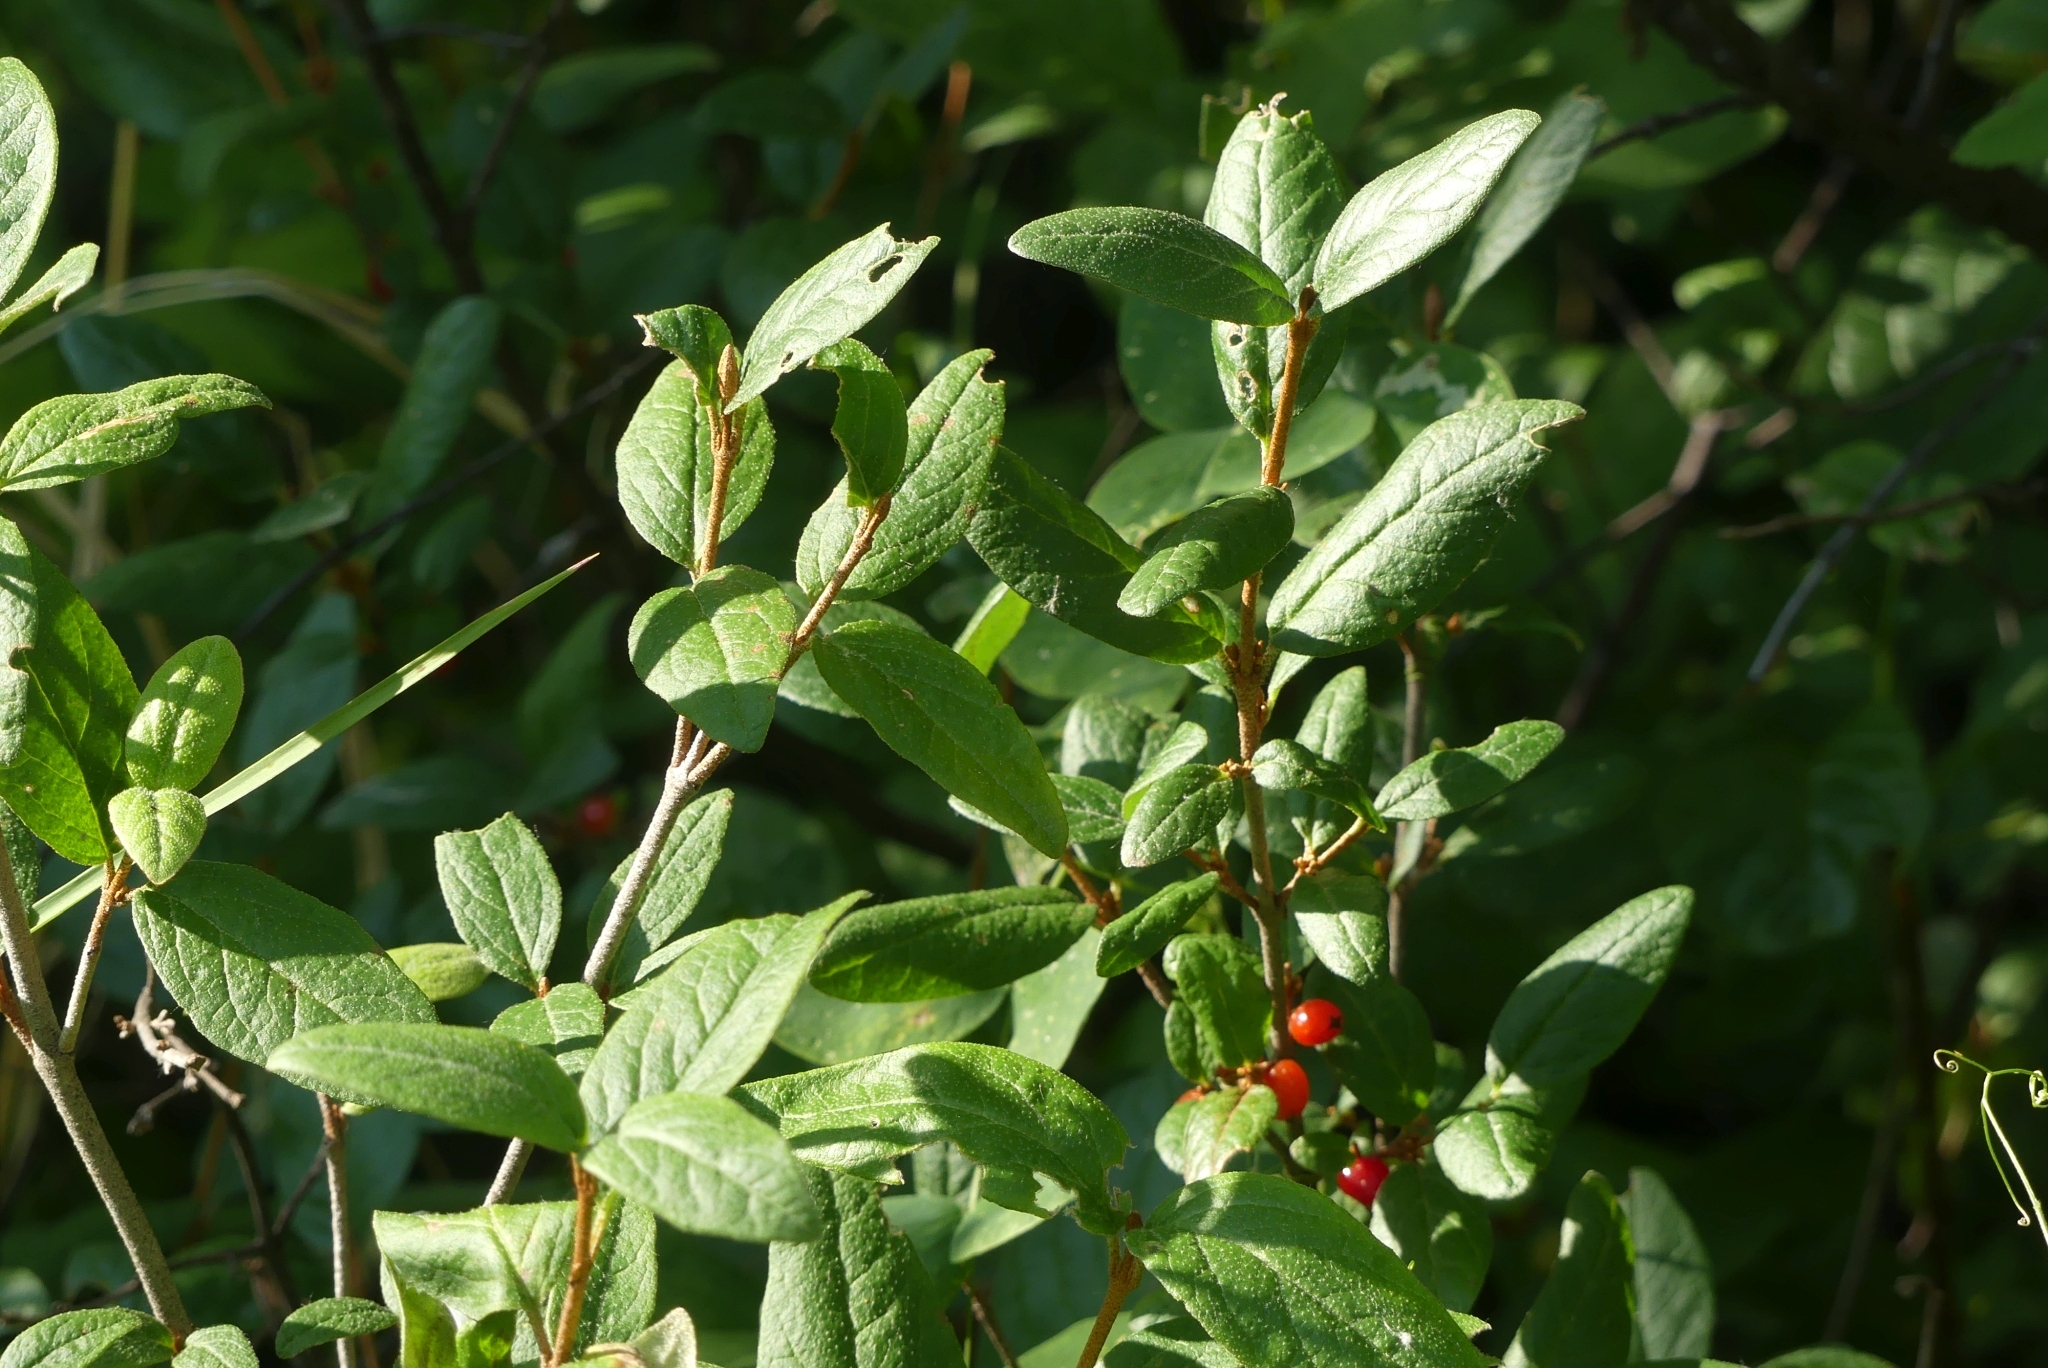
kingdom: Plantae
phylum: Tracheophyta
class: Magnoliopsida
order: Rosales
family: Elaeagnaceae
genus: Shepherdia
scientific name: Shepherdia canadensis
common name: Soapberry
